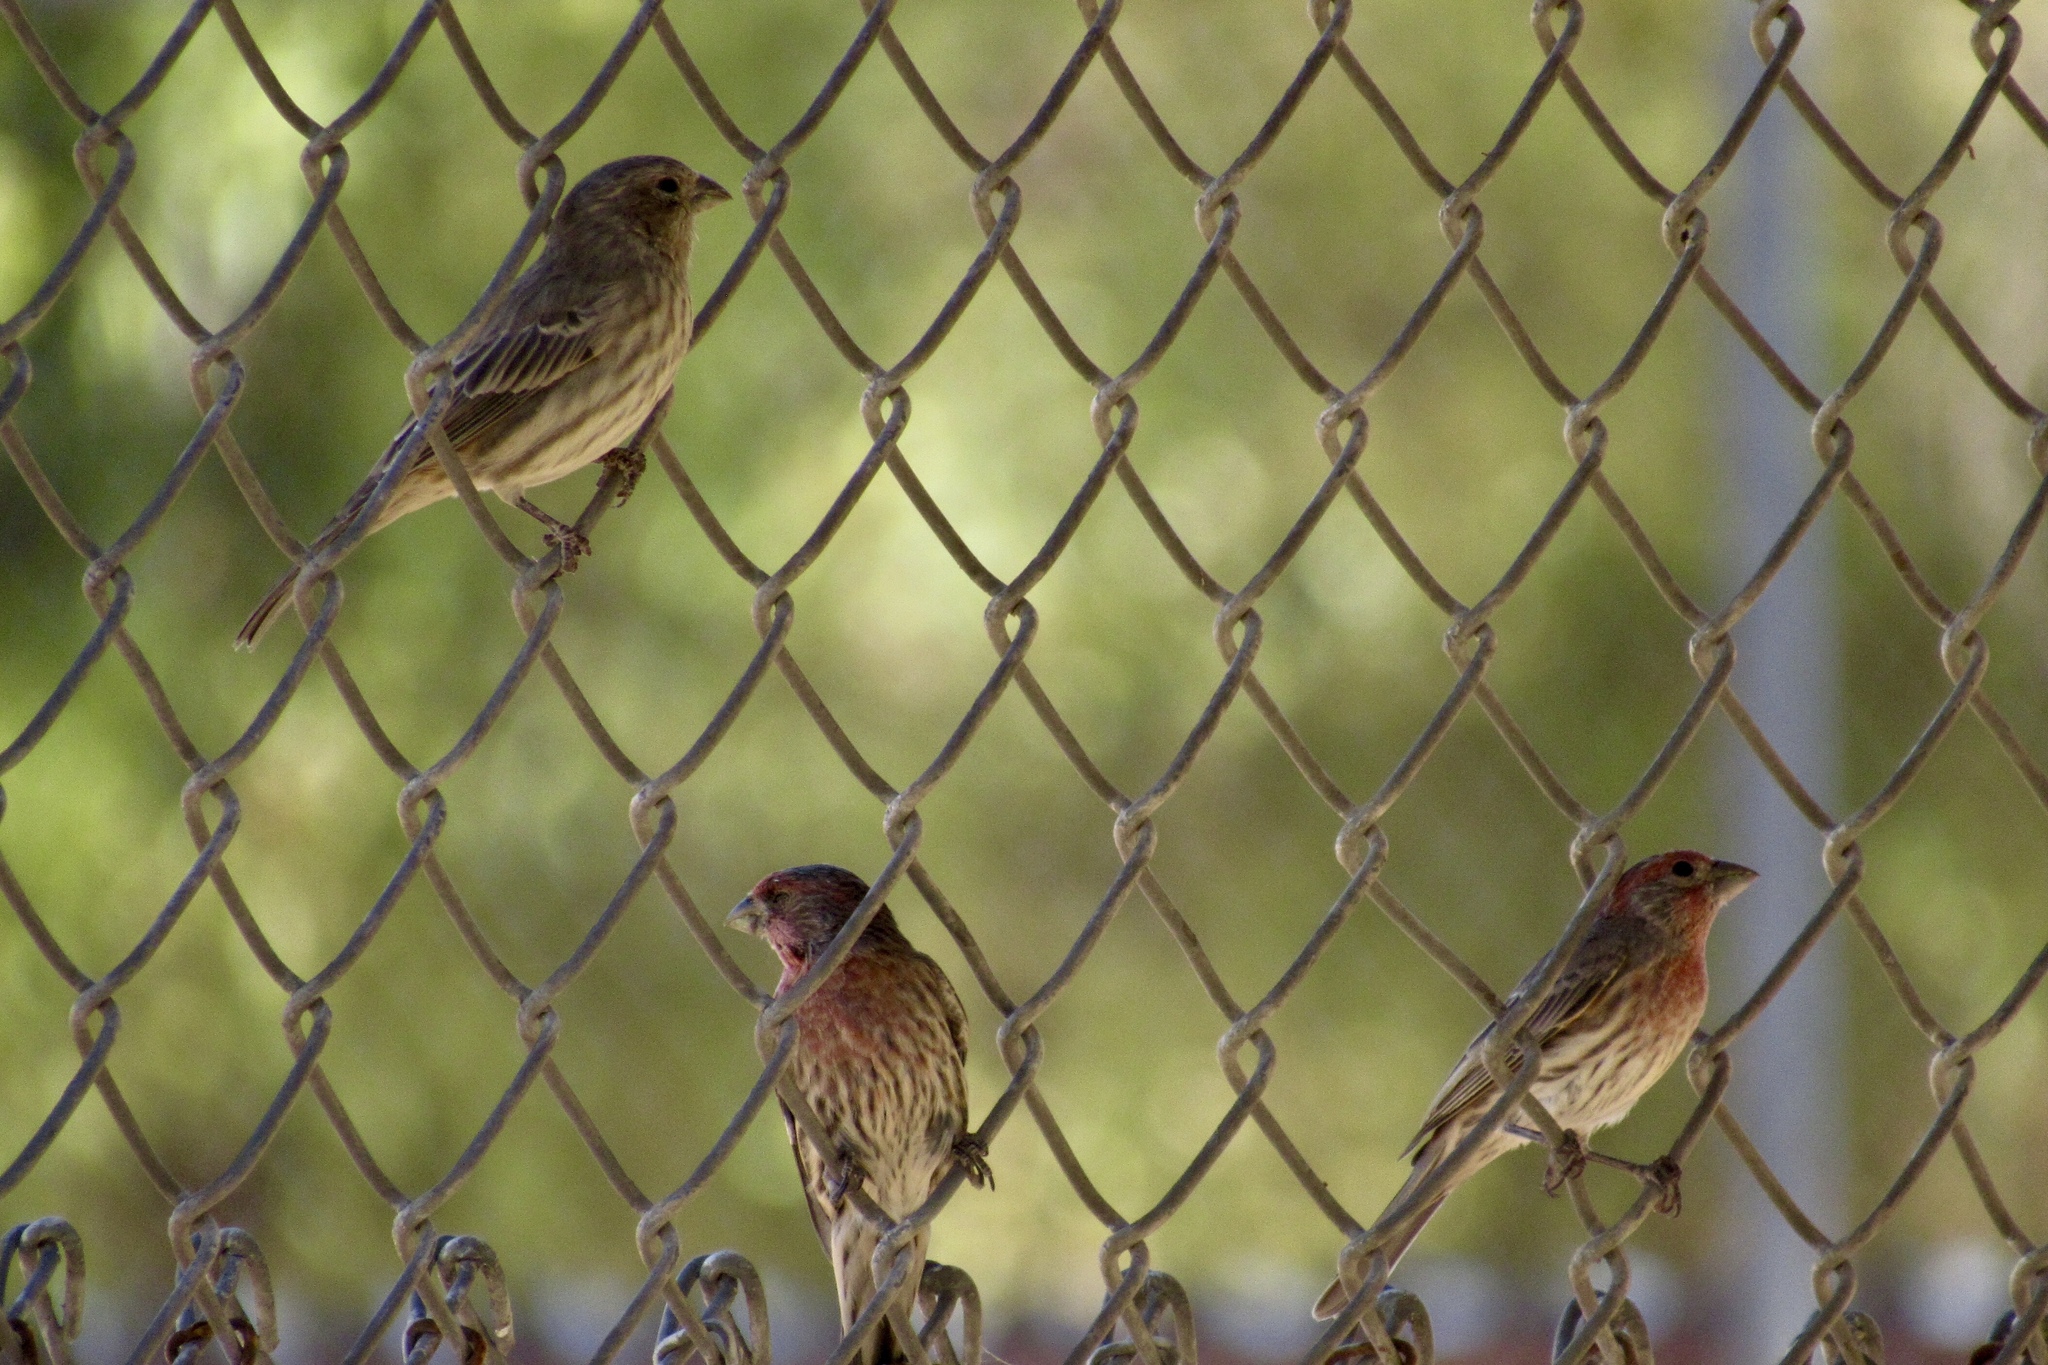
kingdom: Animalia
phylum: Chordata
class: Aves
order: Passeriformes
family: Fringillidae
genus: Haemorhous
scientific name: Haemorhous mexicanus
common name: House finch
